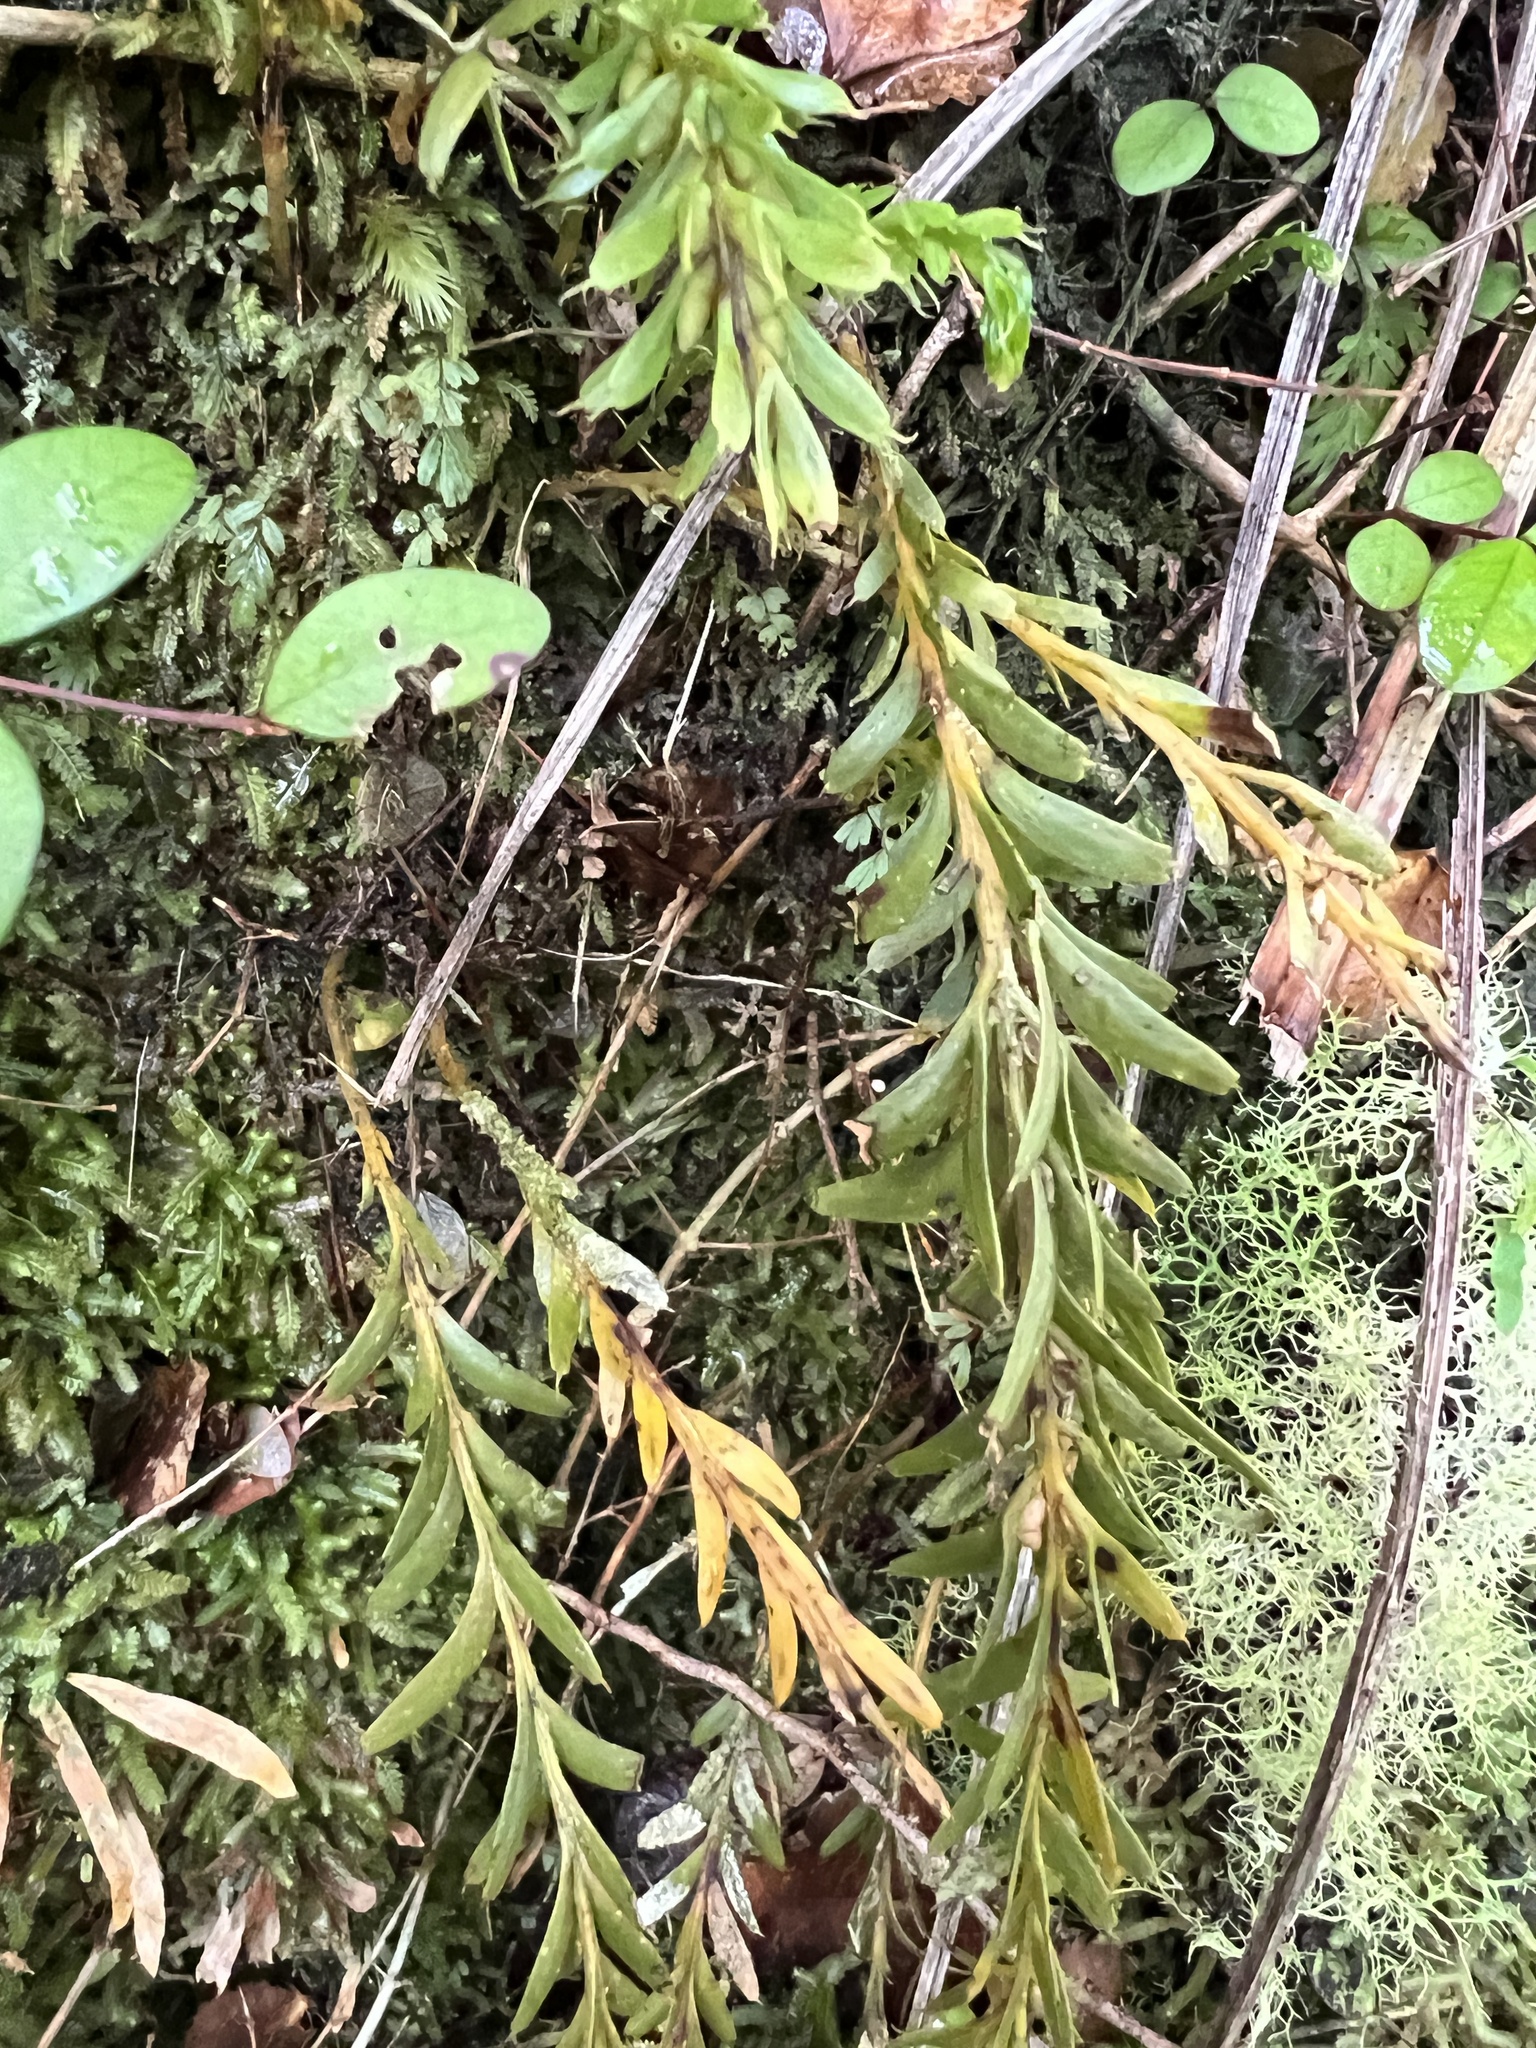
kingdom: Plantae
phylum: Tracheophyta
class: Polypodiopsida
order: Psilotales
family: Psilotaceae
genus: Tmesipteris
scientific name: Tmesipteris tannensis
